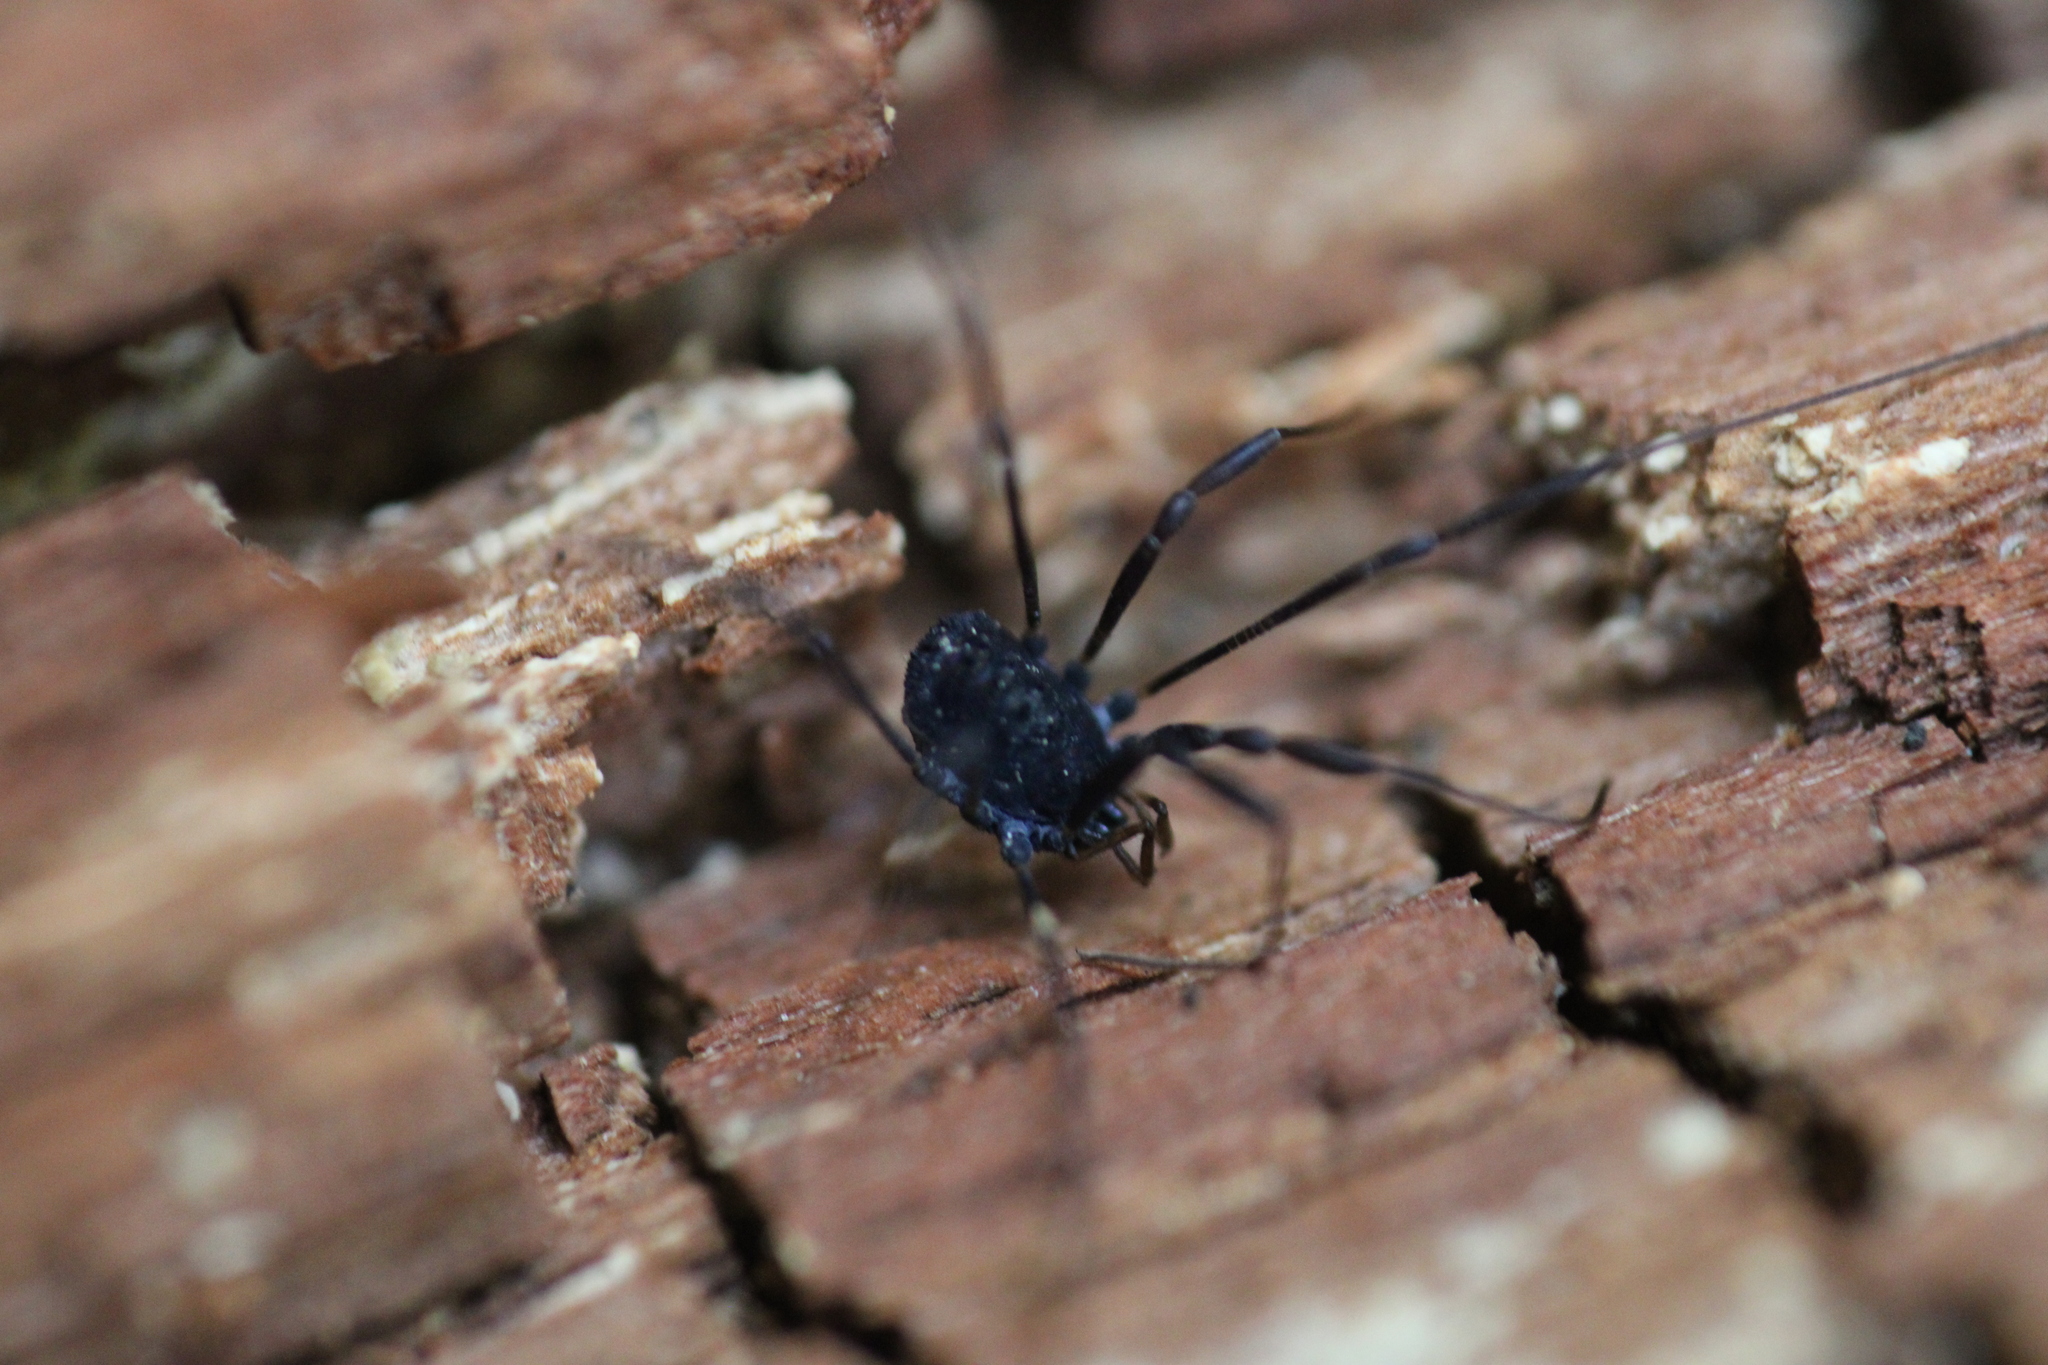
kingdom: Animalia
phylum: Arthropoda
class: Arachnida
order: Opiliones
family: Nemastomatidae
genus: Histricostoma
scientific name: Histricostoma dentipalpe
